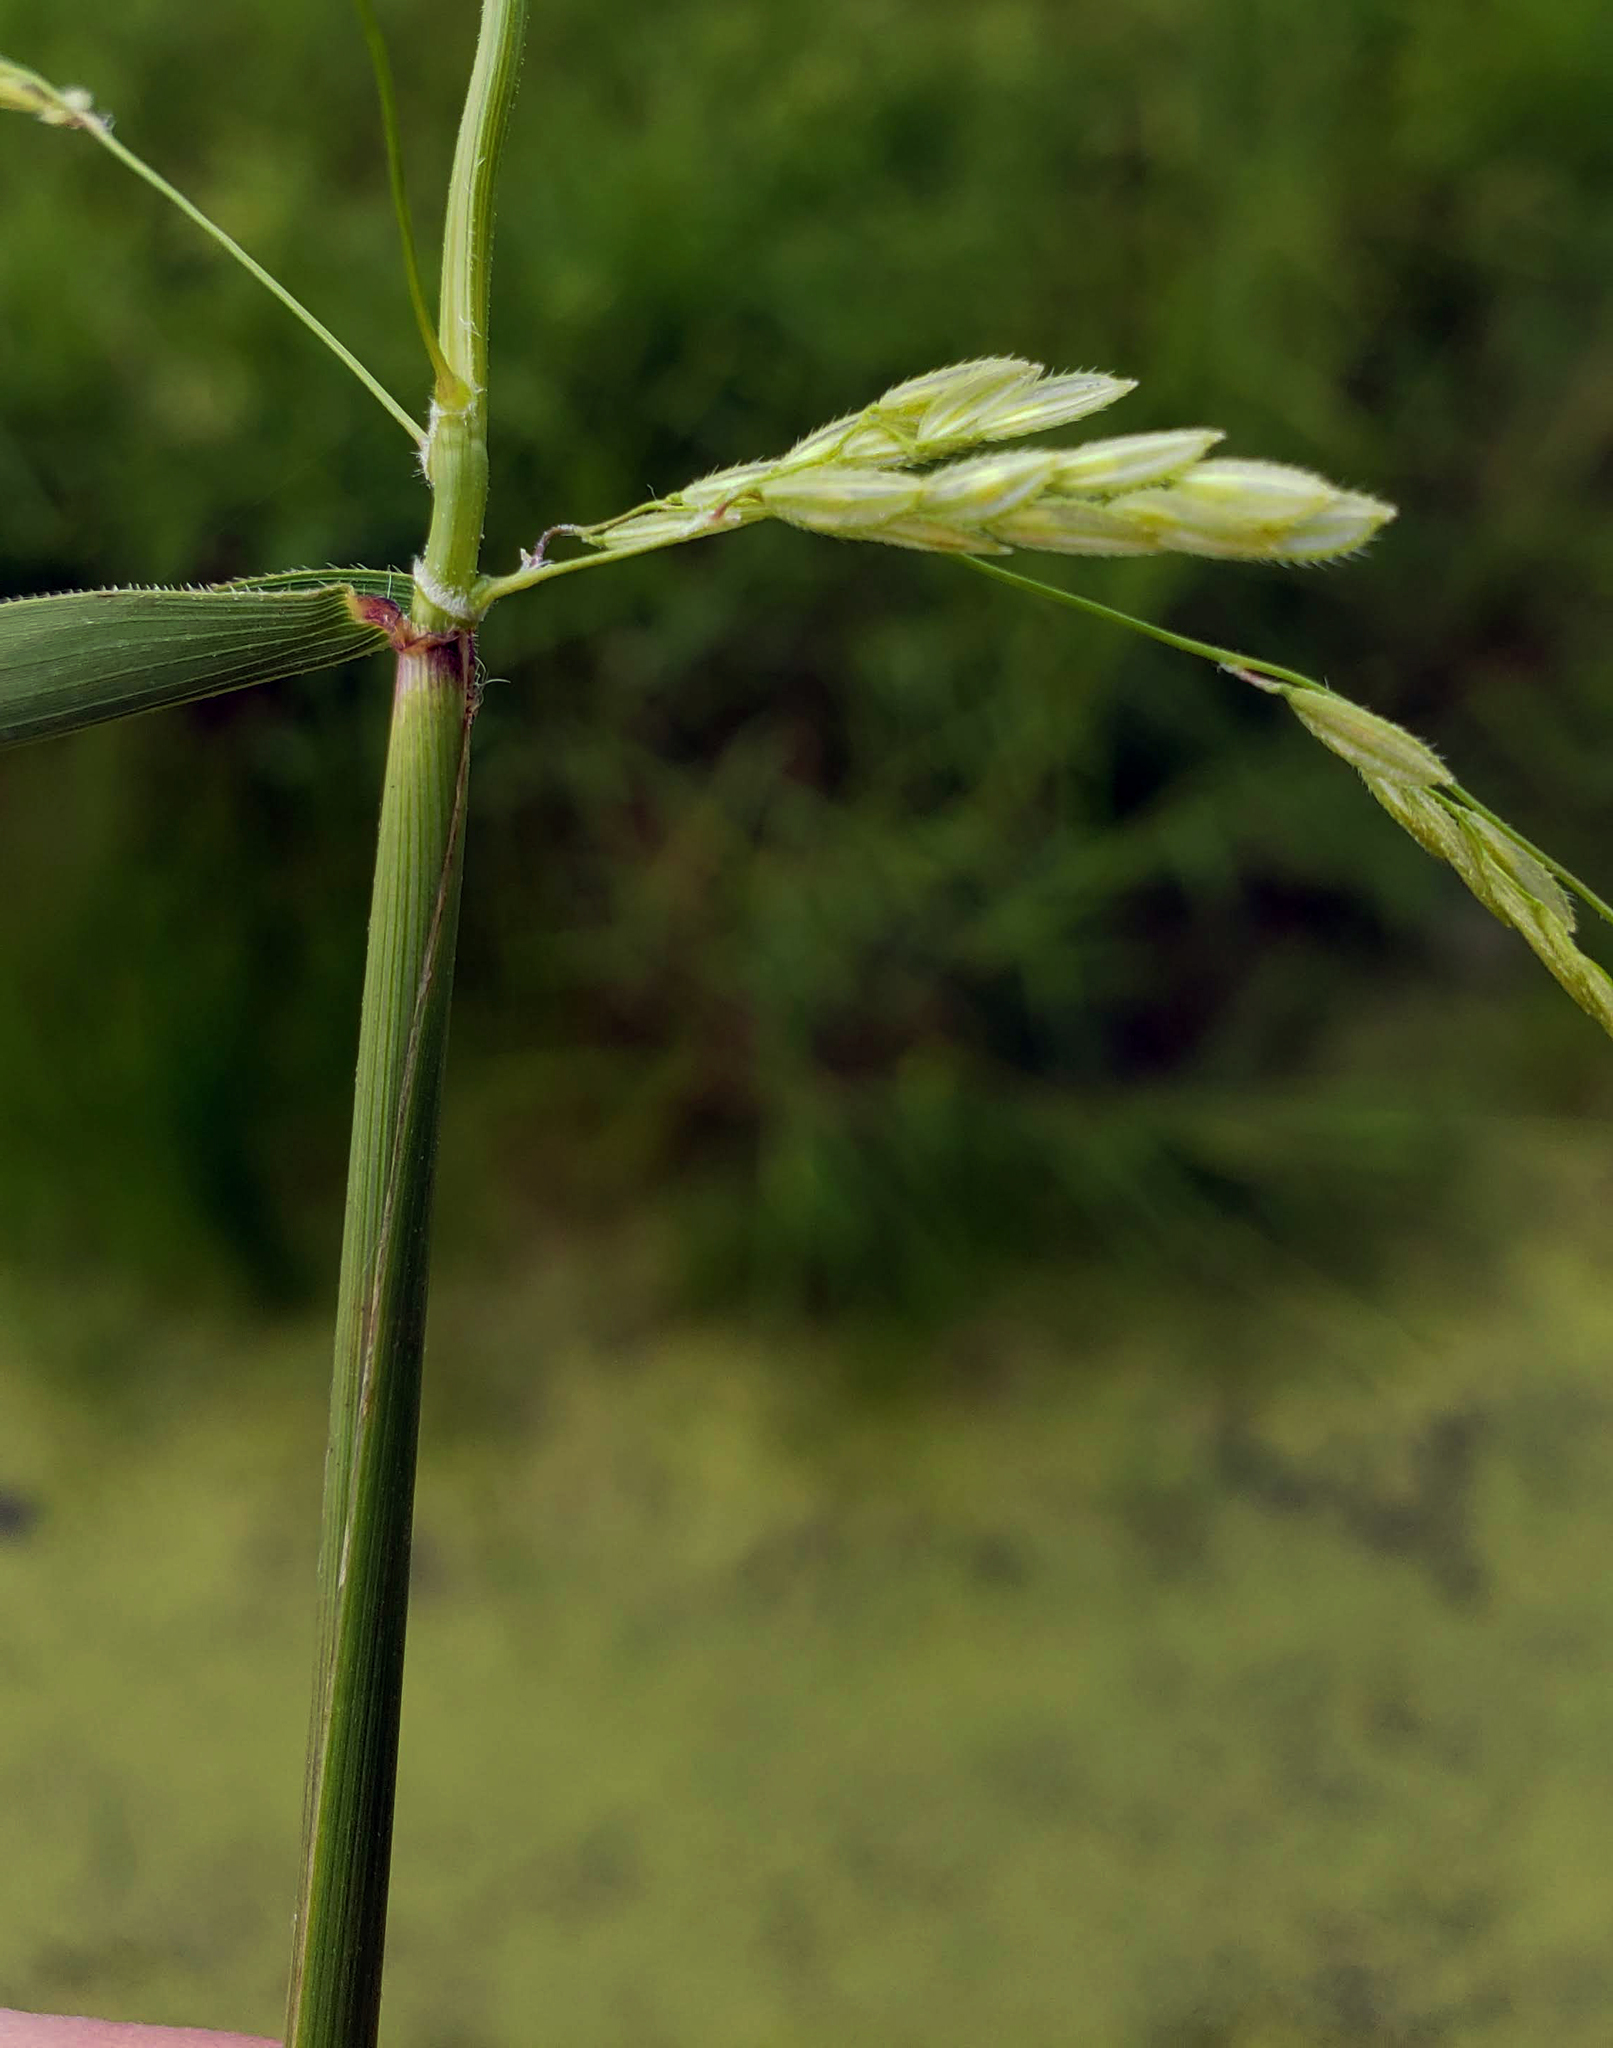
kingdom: Plantae
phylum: Tracheophyta
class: Liliopsida
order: Poales
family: Poaceae
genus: Leersia
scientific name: Leersia oryzoides
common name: Cut-grass
